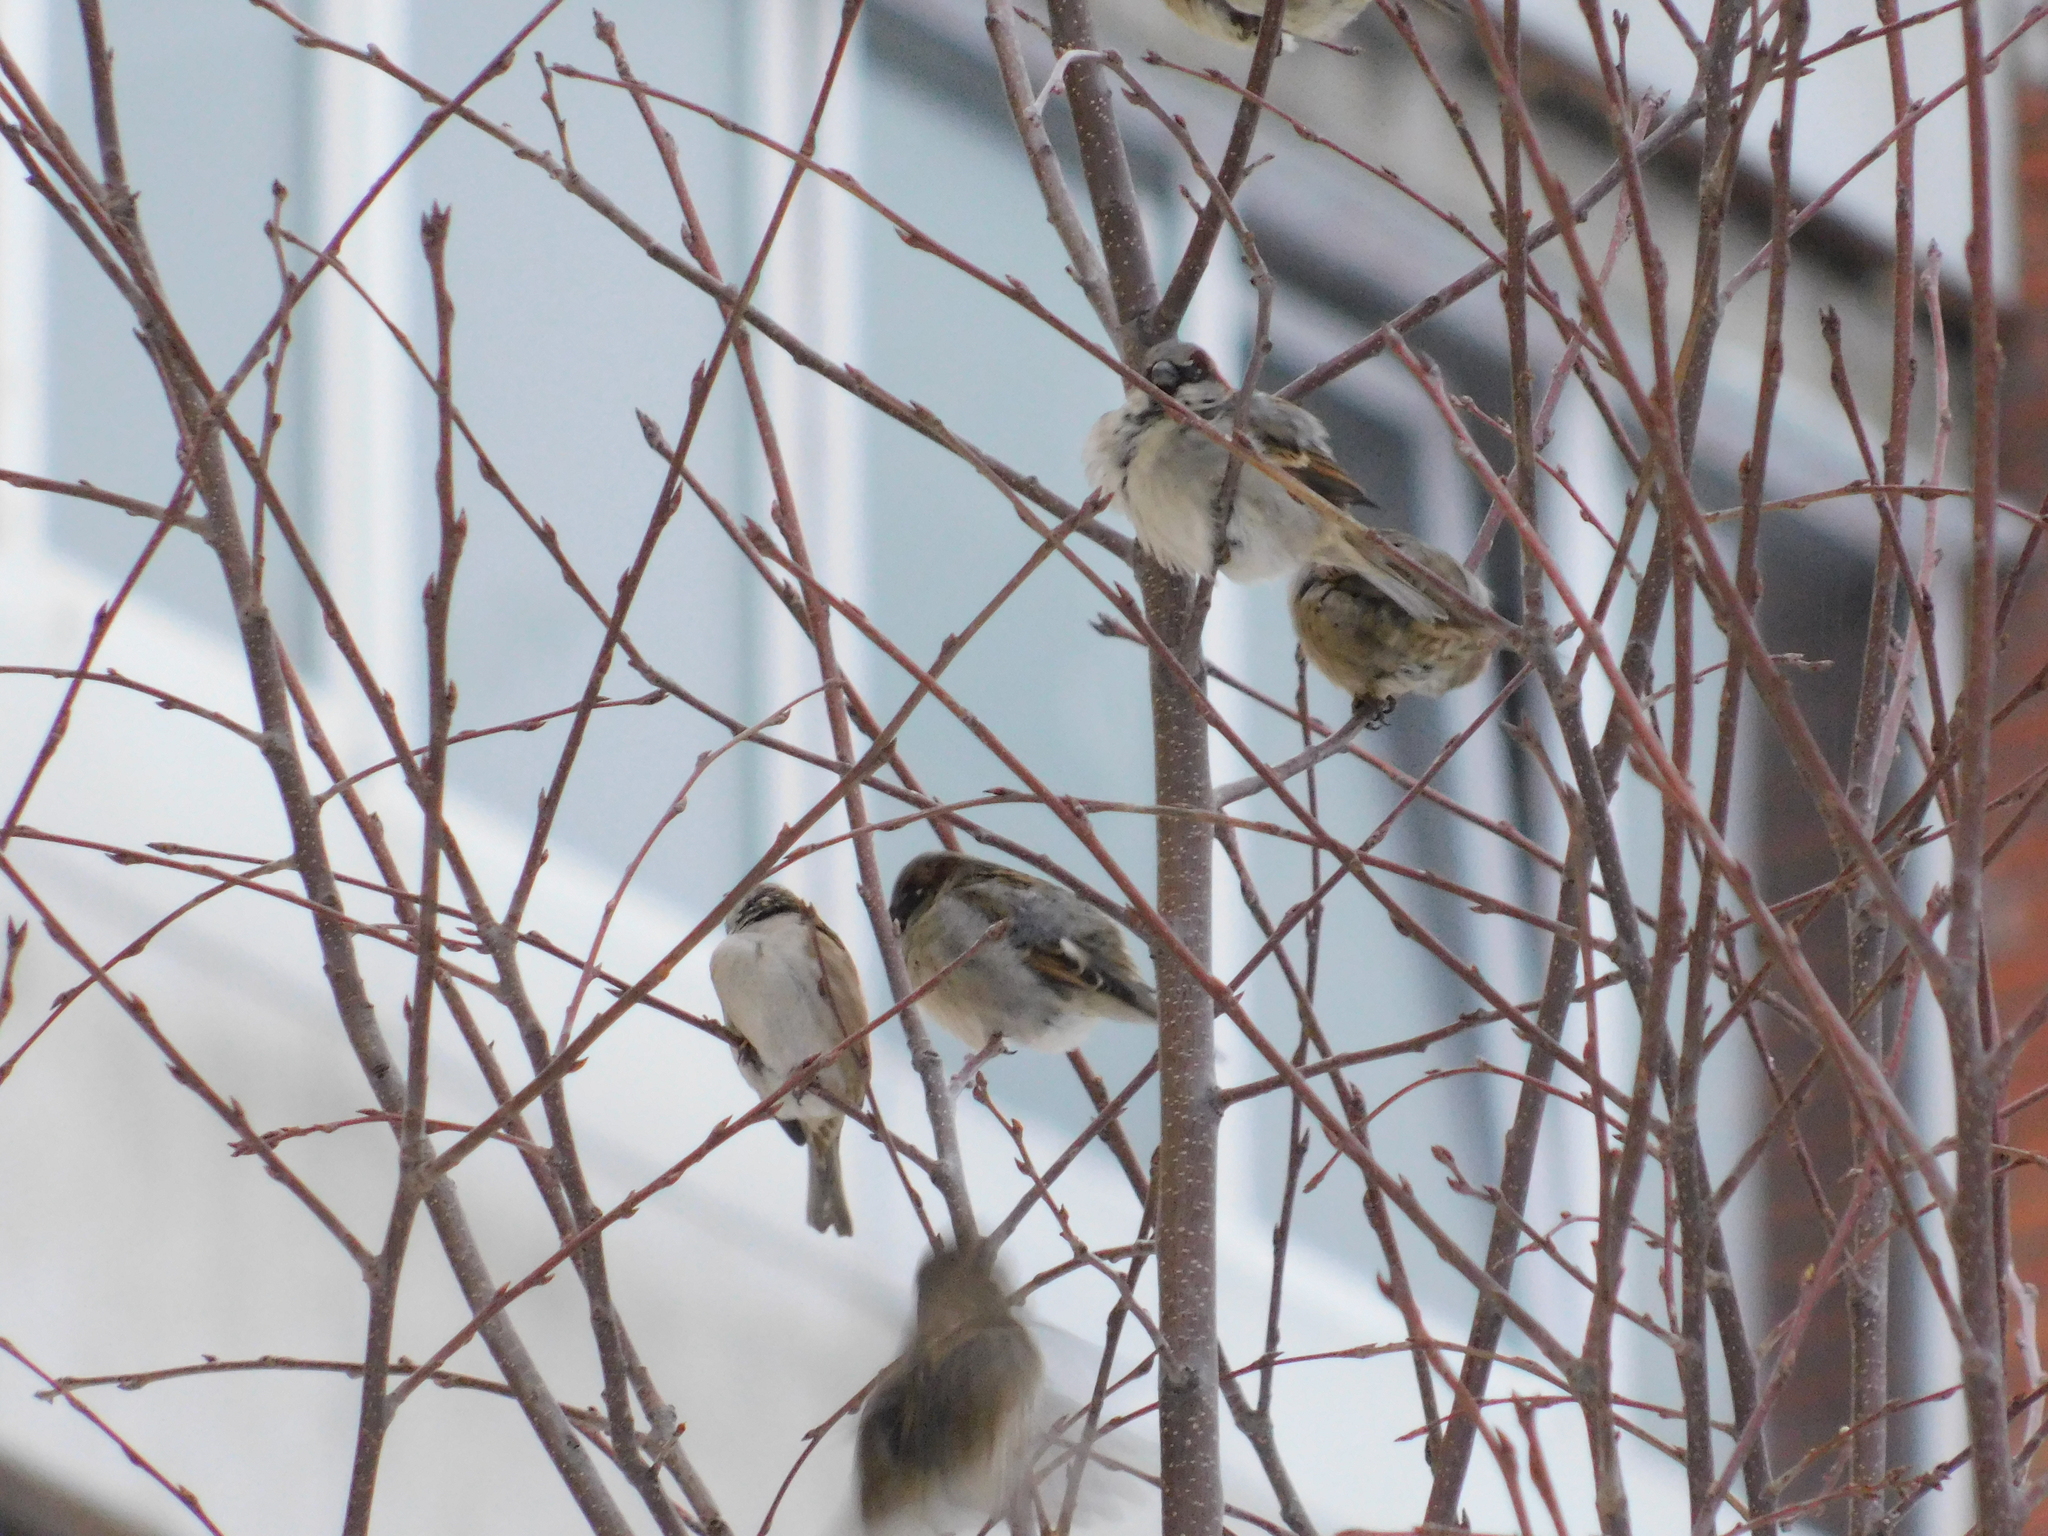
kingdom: Animalia
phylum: Chordata
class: Aves
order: Passeriformes
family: Passeridae
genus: Passer
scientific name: Passer domesticus
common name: House sparrow
